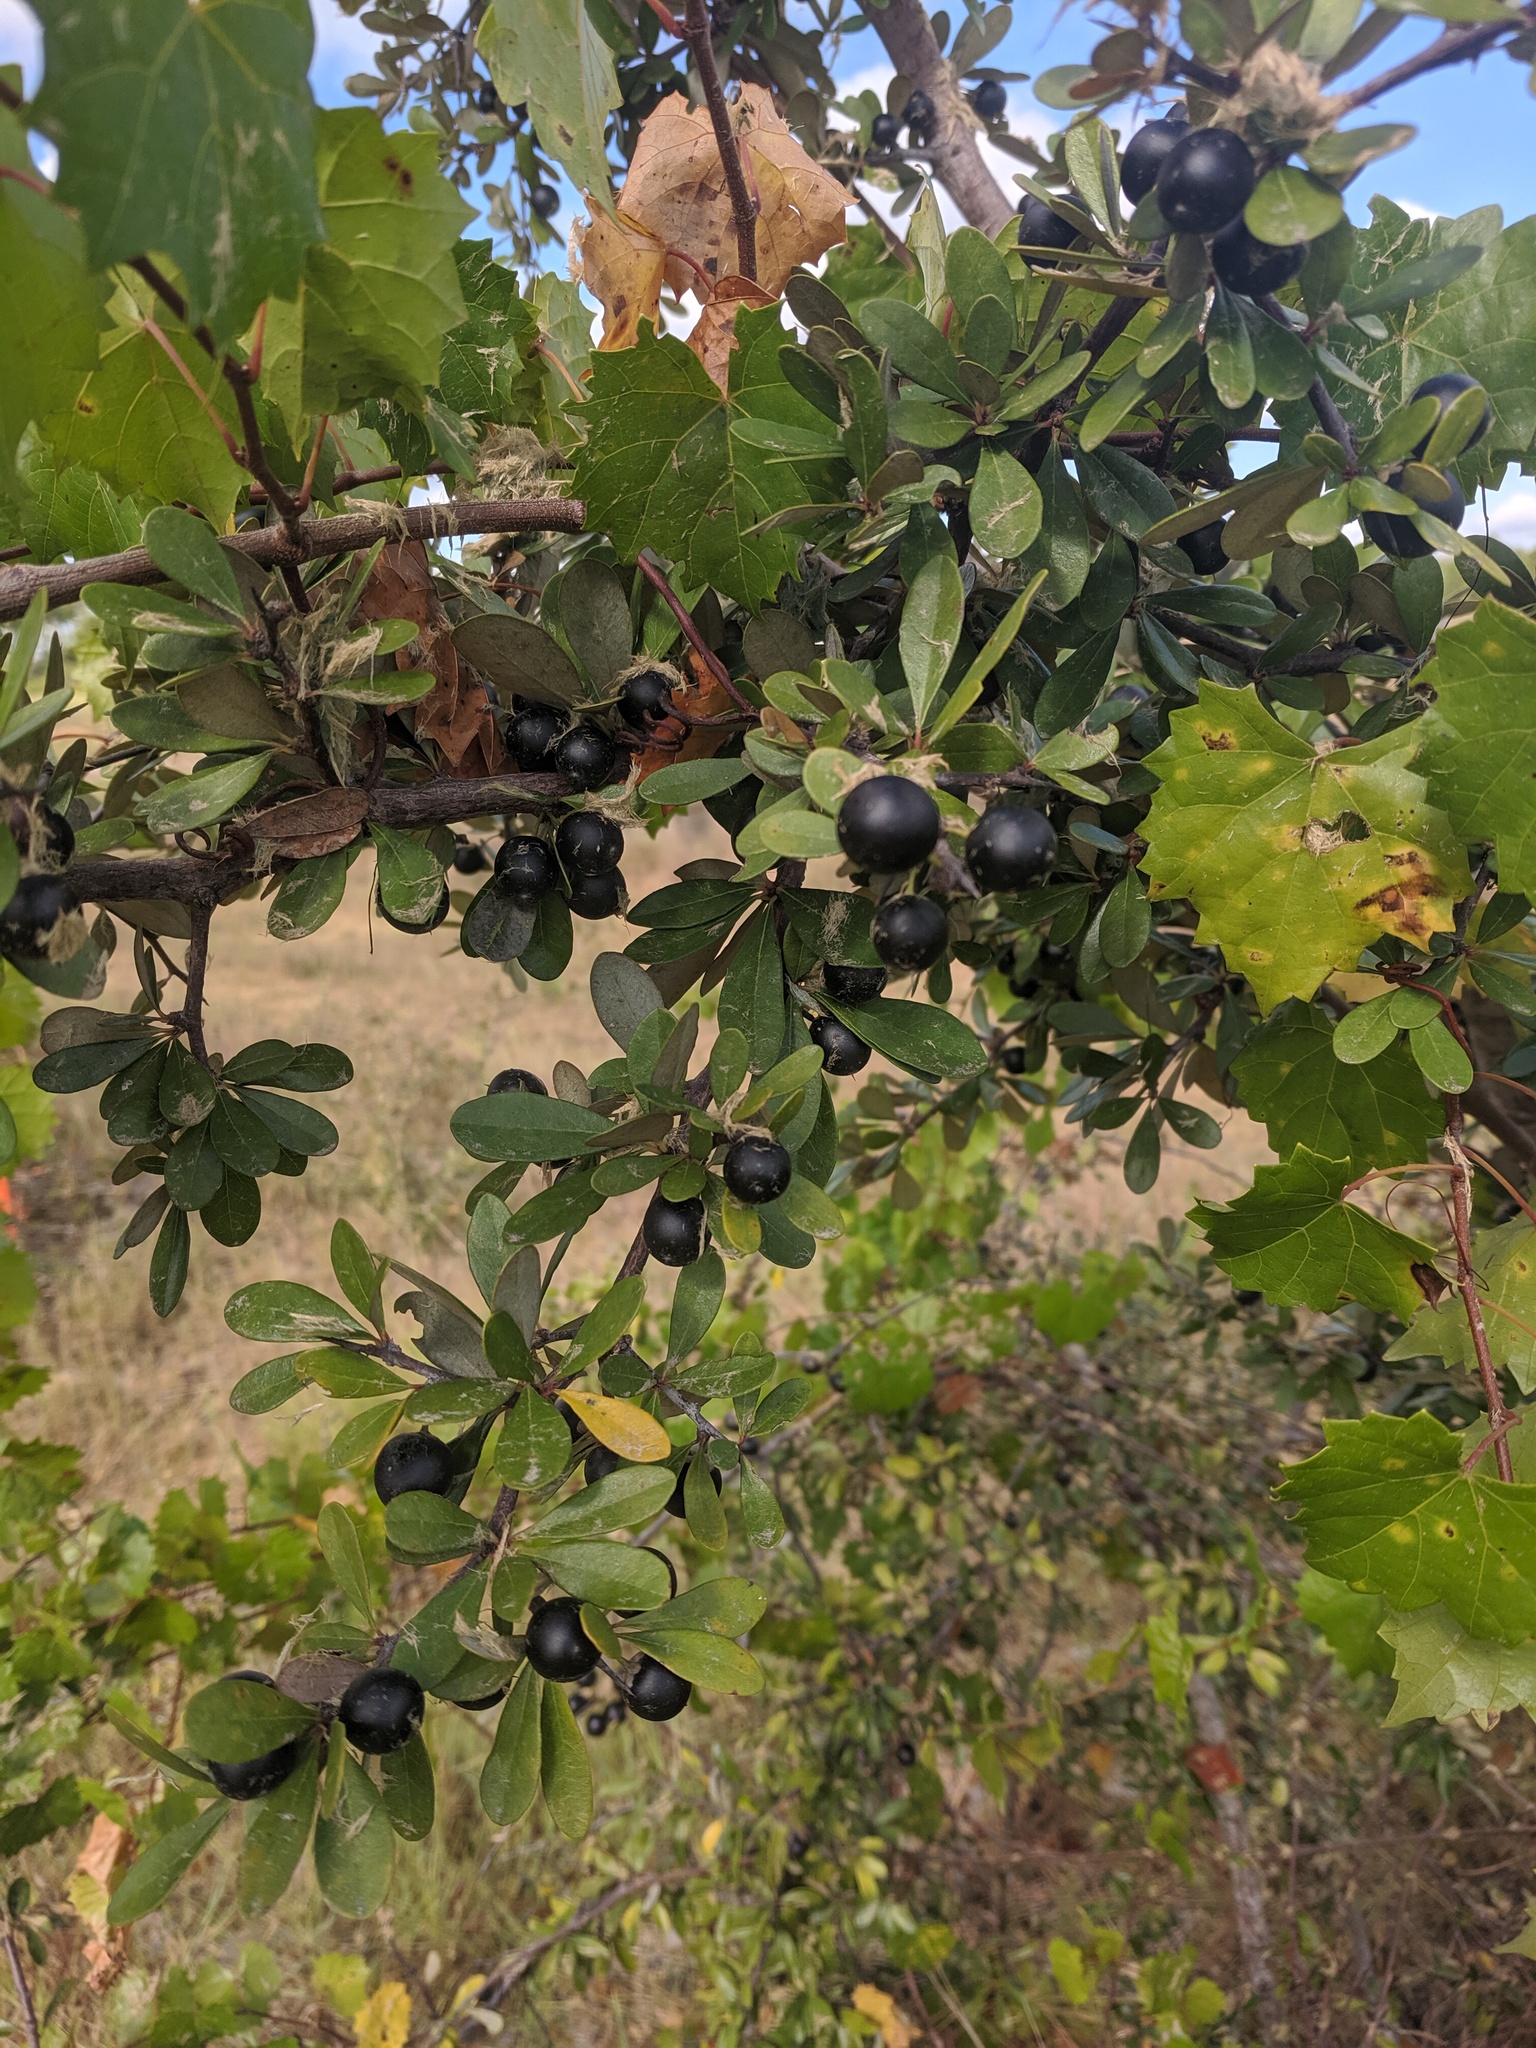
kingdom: Plantae
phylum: Tracheophyta
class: Magnoliopsida
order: Ericales
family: Sapotaceae
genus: Sideroxylon
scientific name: Sideroxylon tenax
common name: Tough-buckthorn
